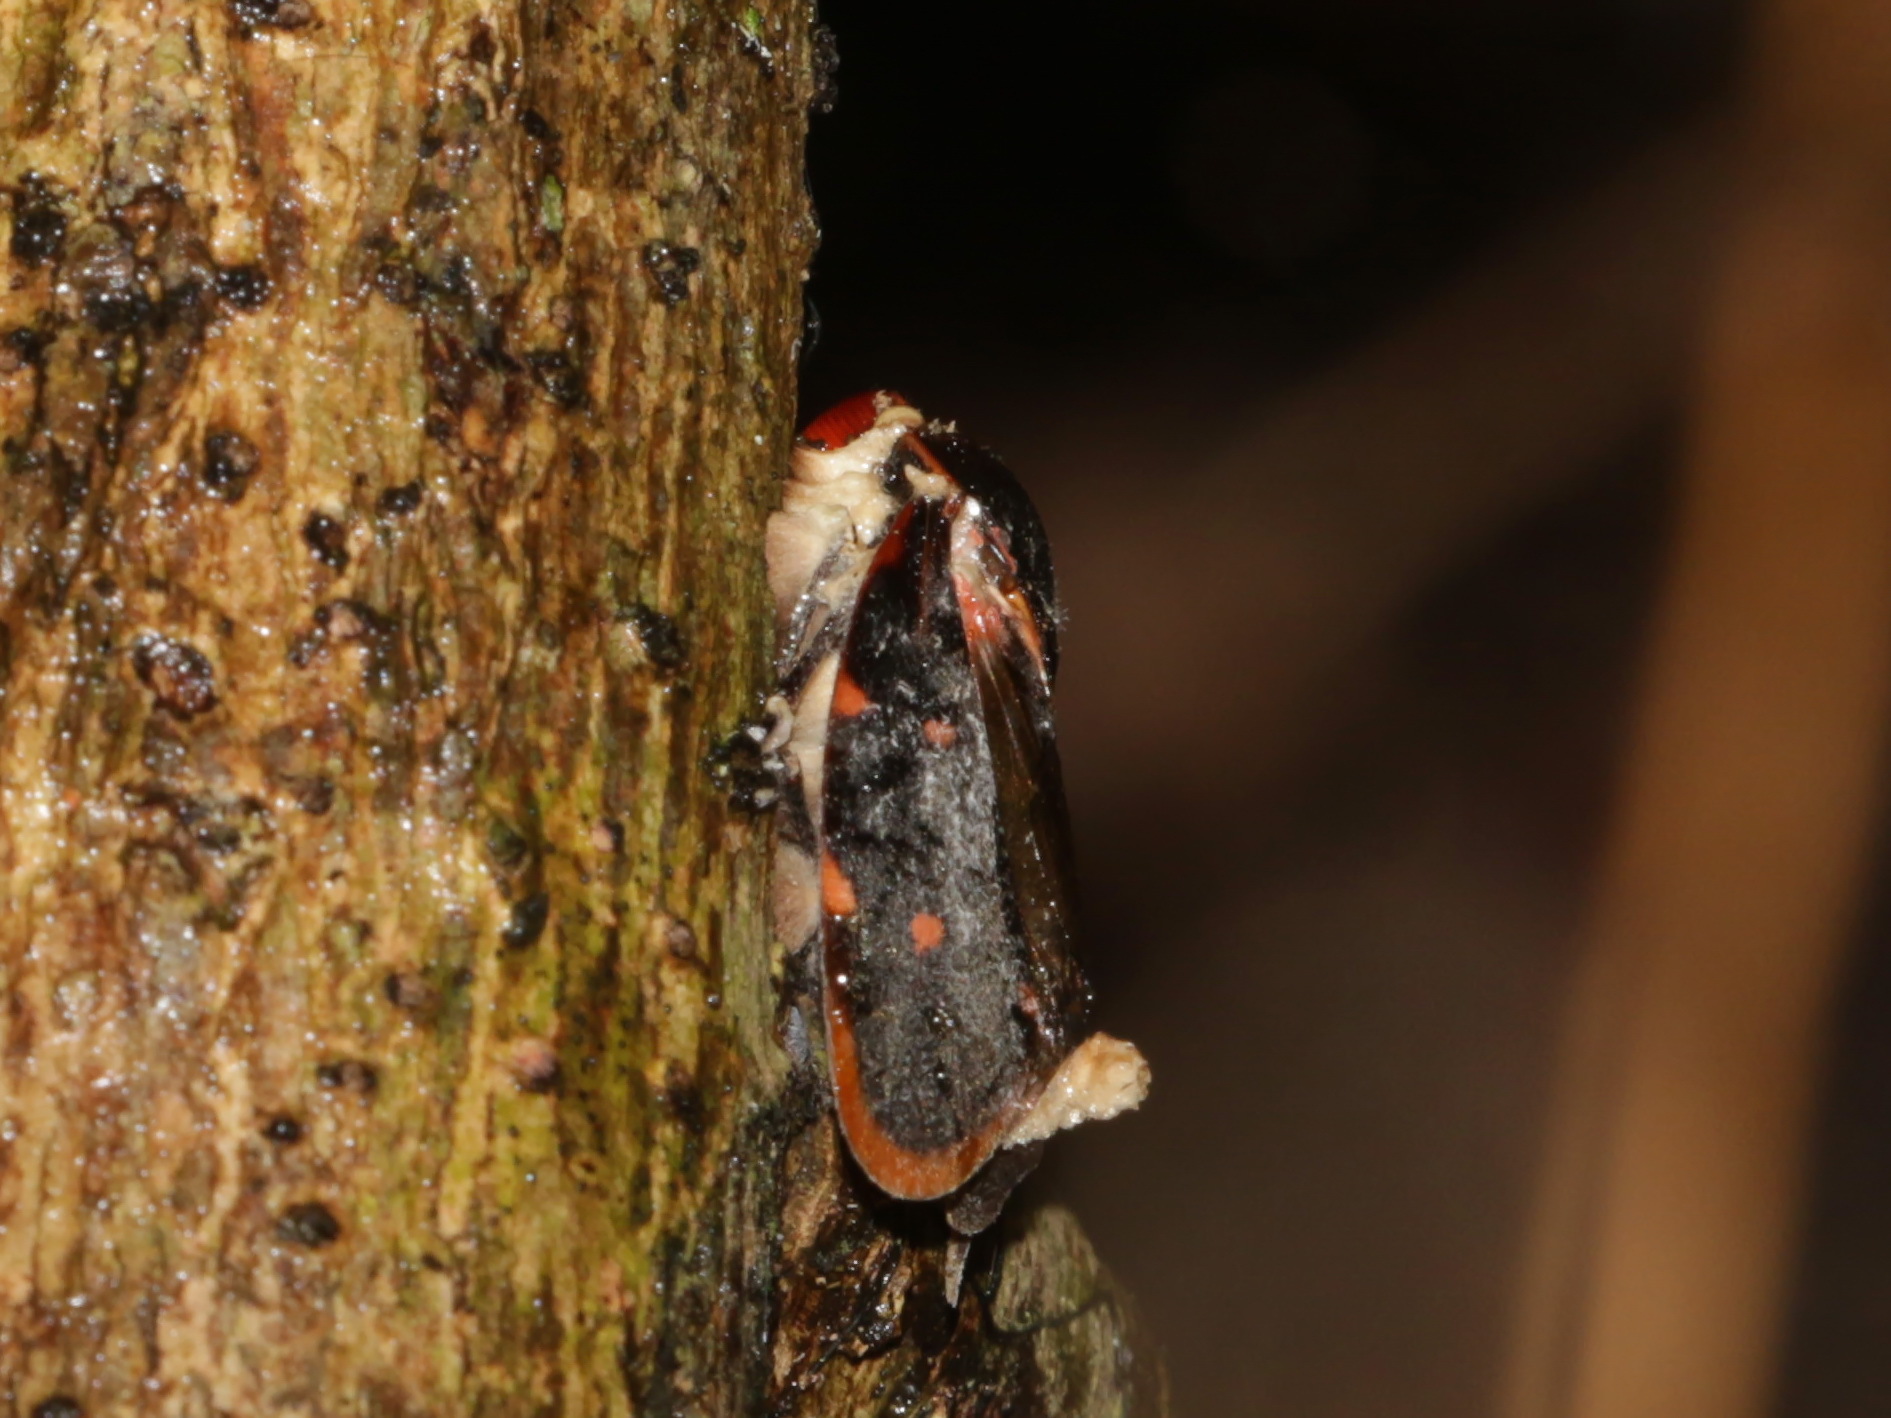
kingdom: Animalia
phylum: Arthropoda
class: Insecta
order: Hemiptera
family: Cercopidae
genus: Phymatostetha
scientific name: Phymatostetha triseriata
